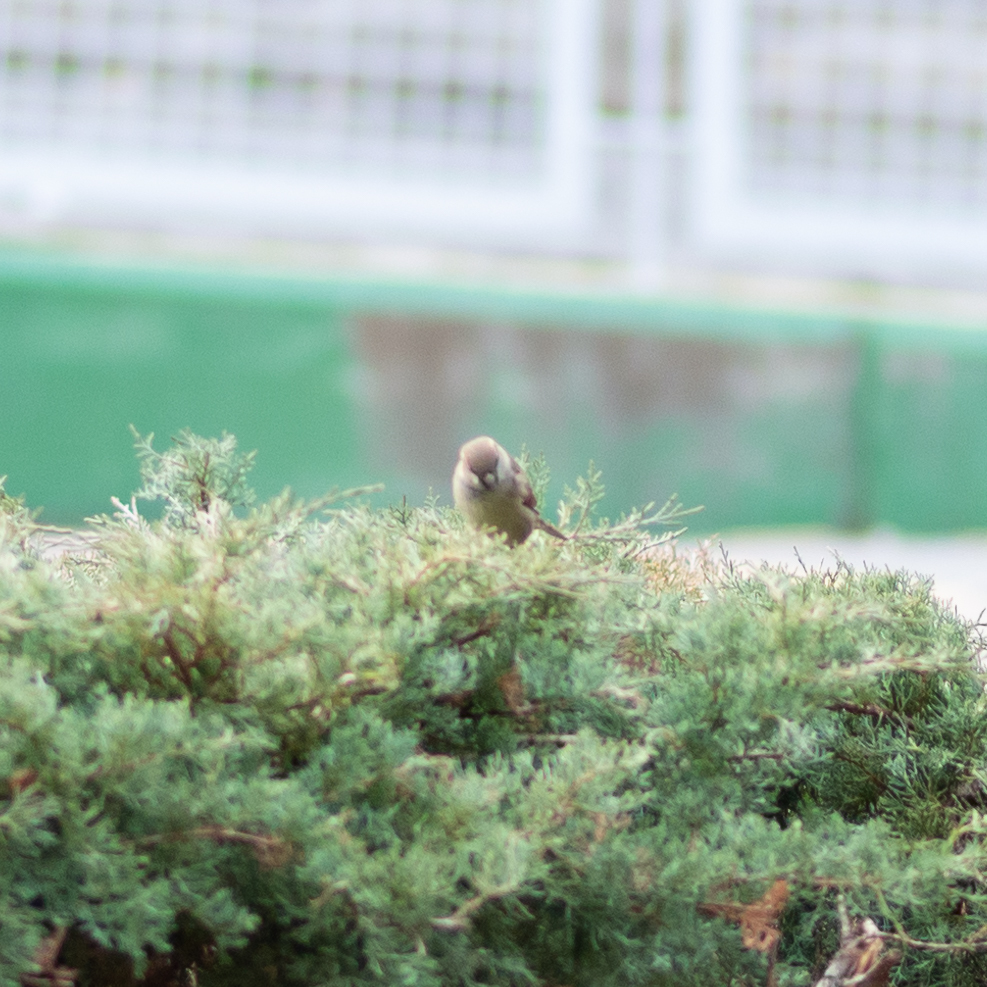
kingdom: Animalia
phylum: Chordata
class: Aves
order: Passeriformes
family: Passeridae
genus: Passer
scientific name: Passer domesticus
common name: House sparrow
